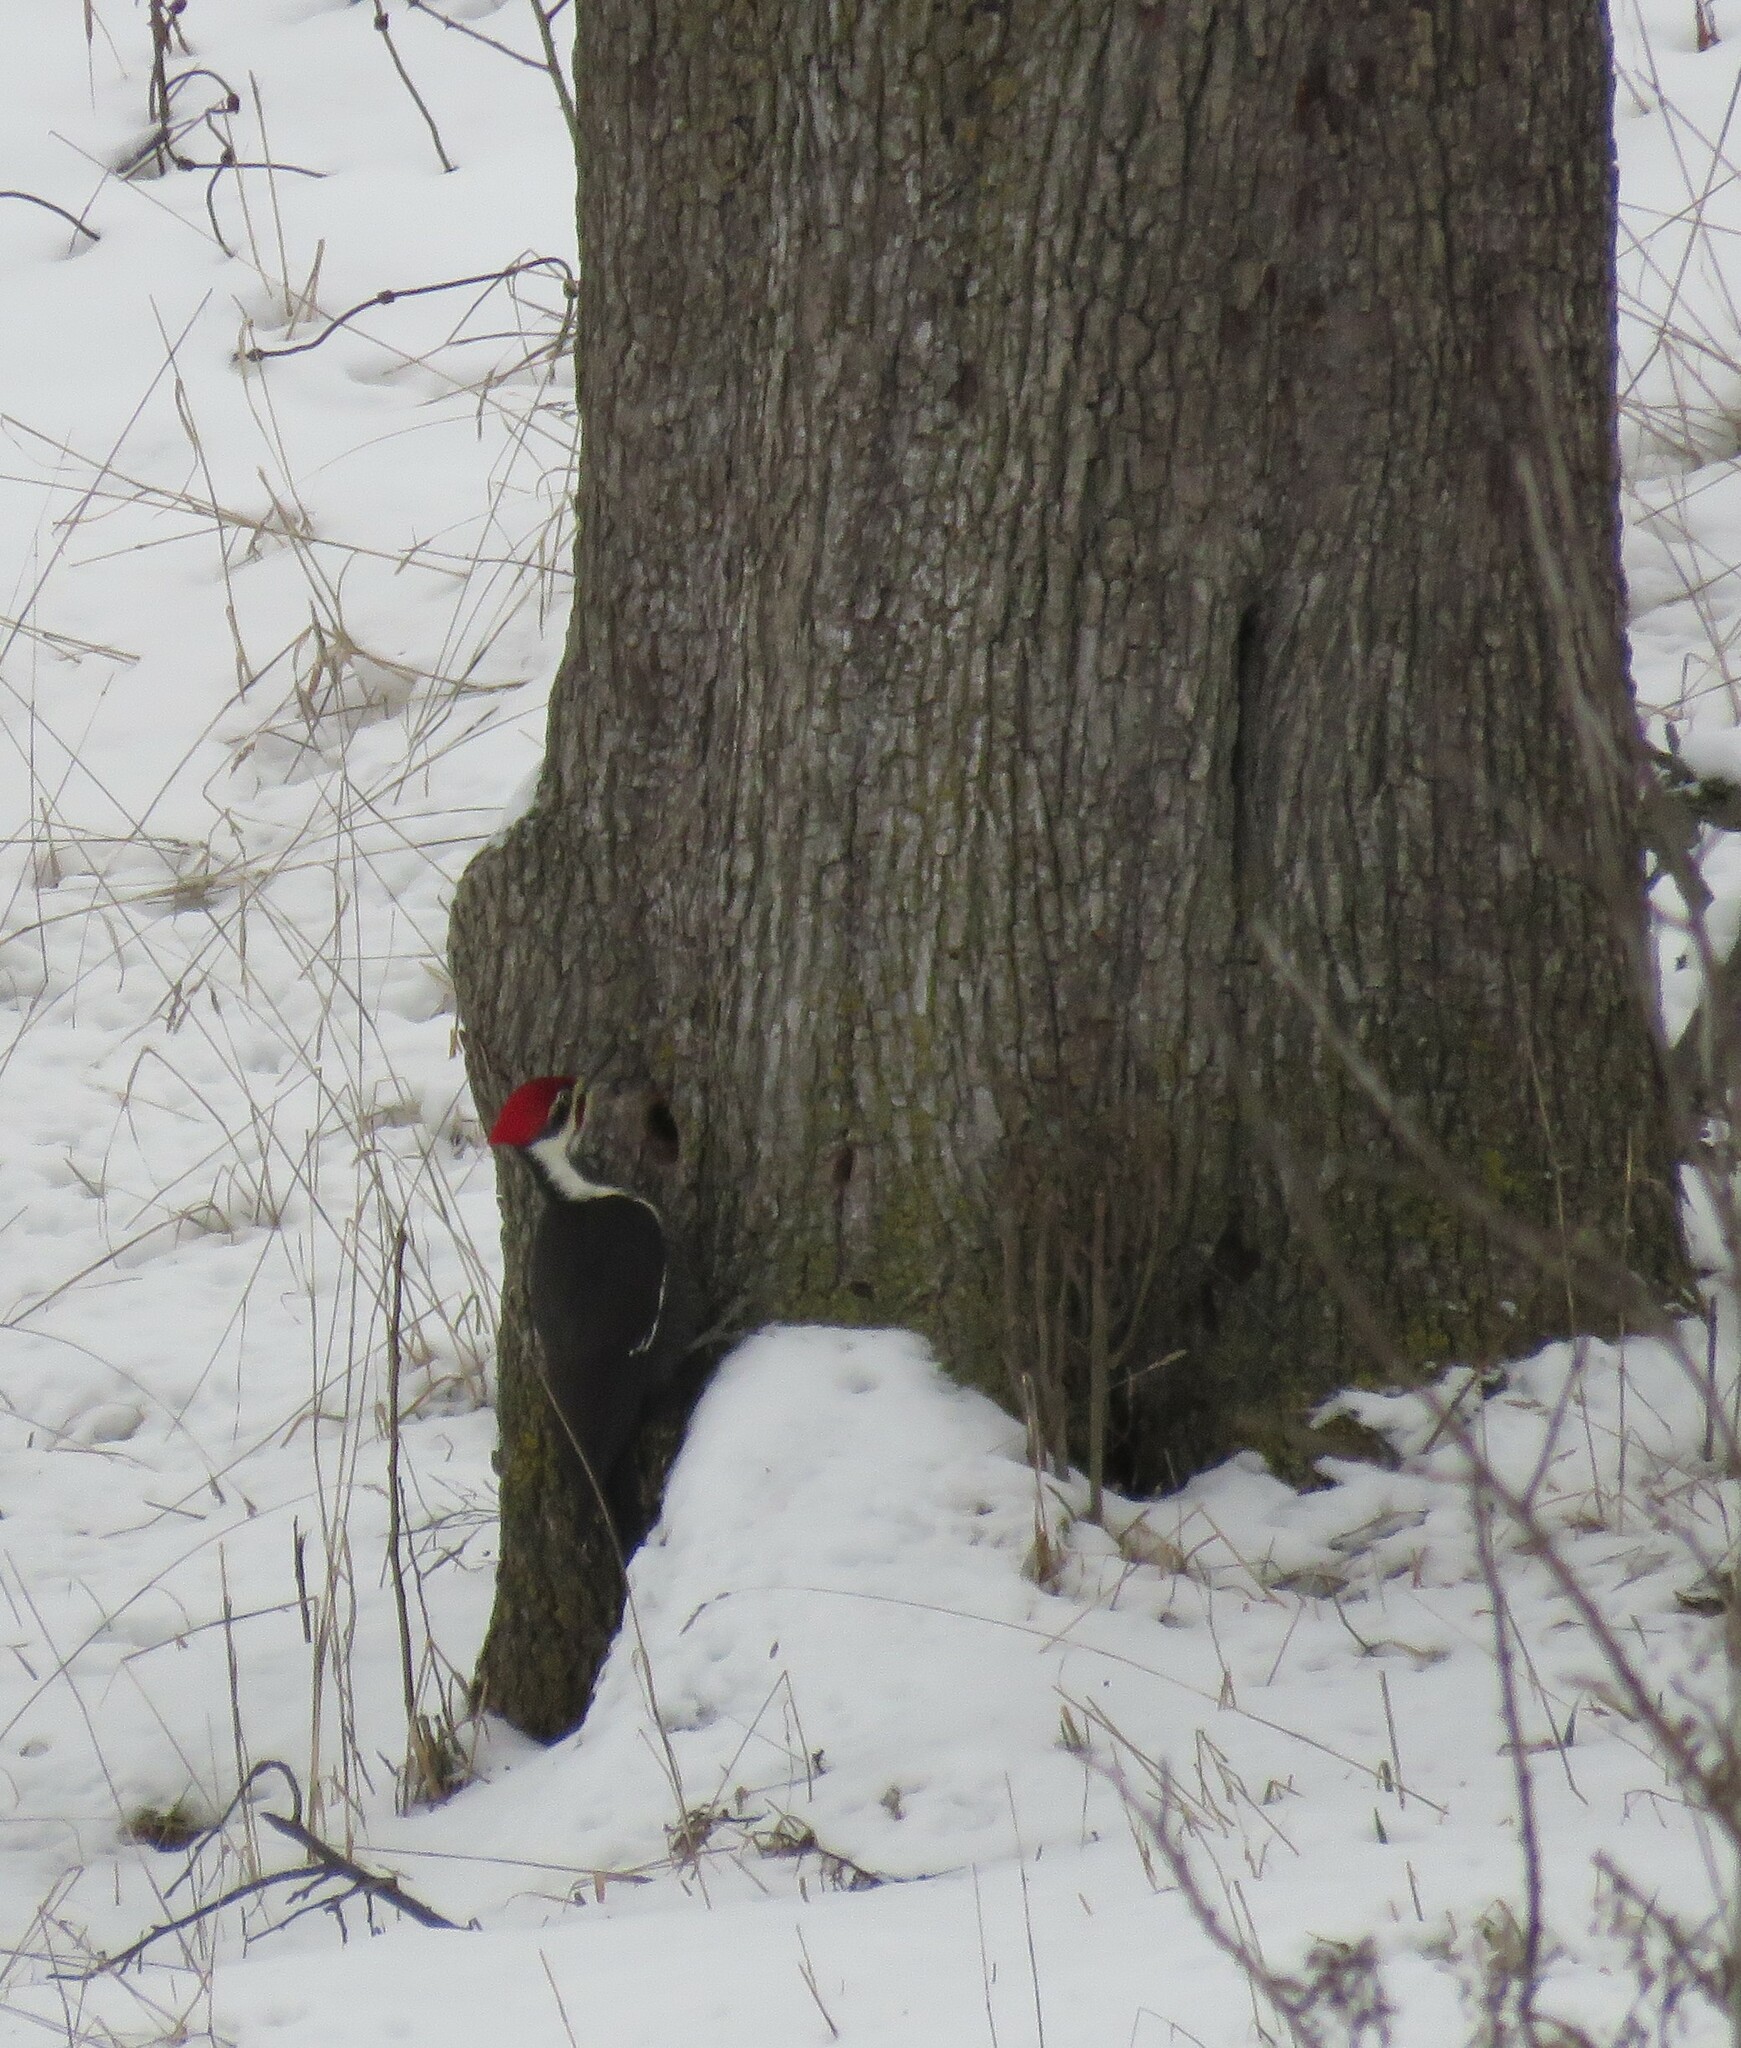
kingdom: Animalia
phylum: Chordata
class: Aves
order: Piciformes
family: Picidae
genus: Dryocopus
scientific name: Dryocopus pileatus
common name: Pileated woodpecker
